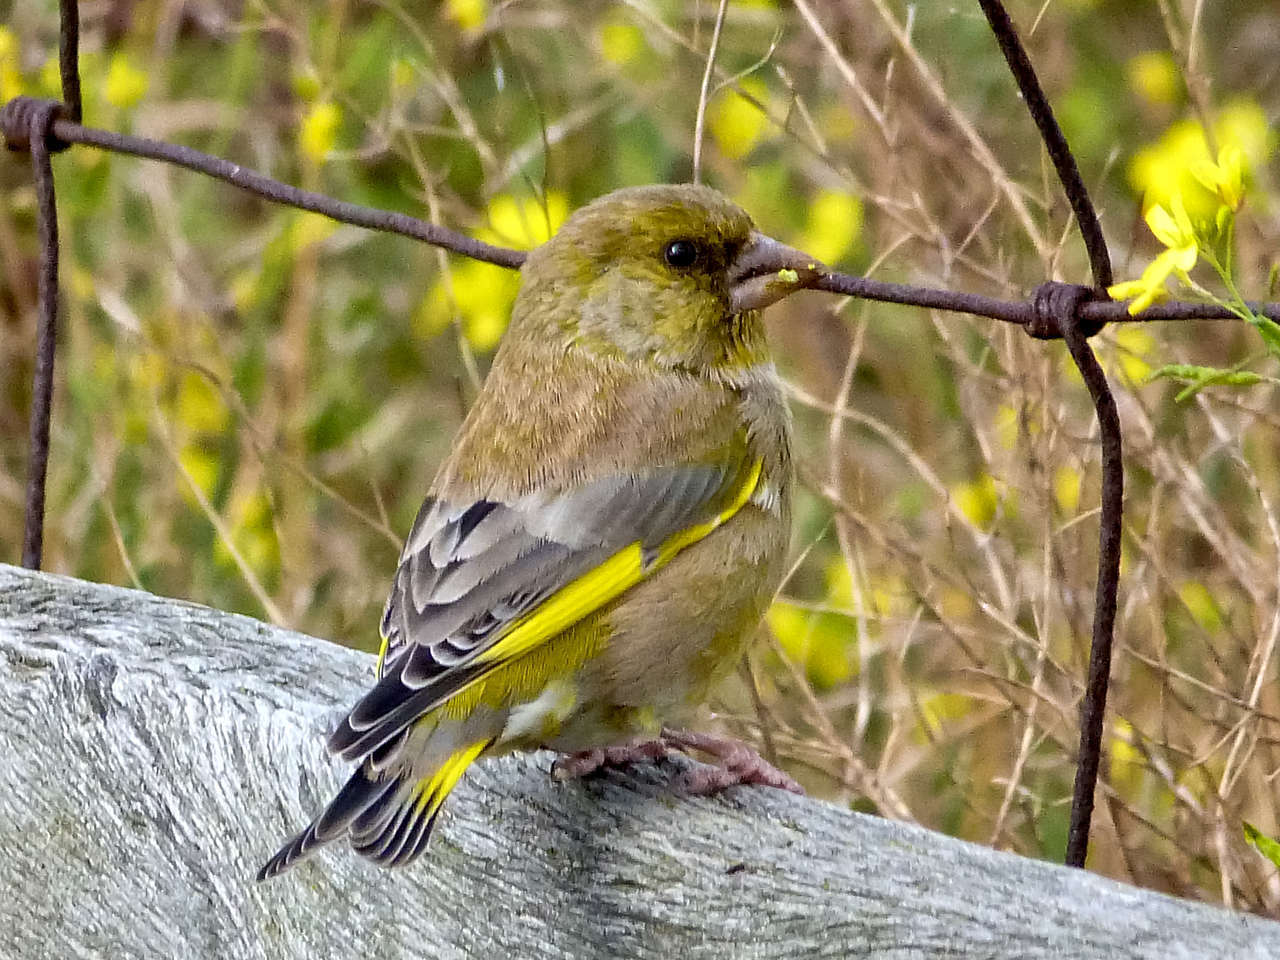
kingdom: Plantae
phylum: Tracheophyta
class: Liliopsida
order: Poales
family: Poaceae
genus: Chloris
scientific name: Chloris chloris
